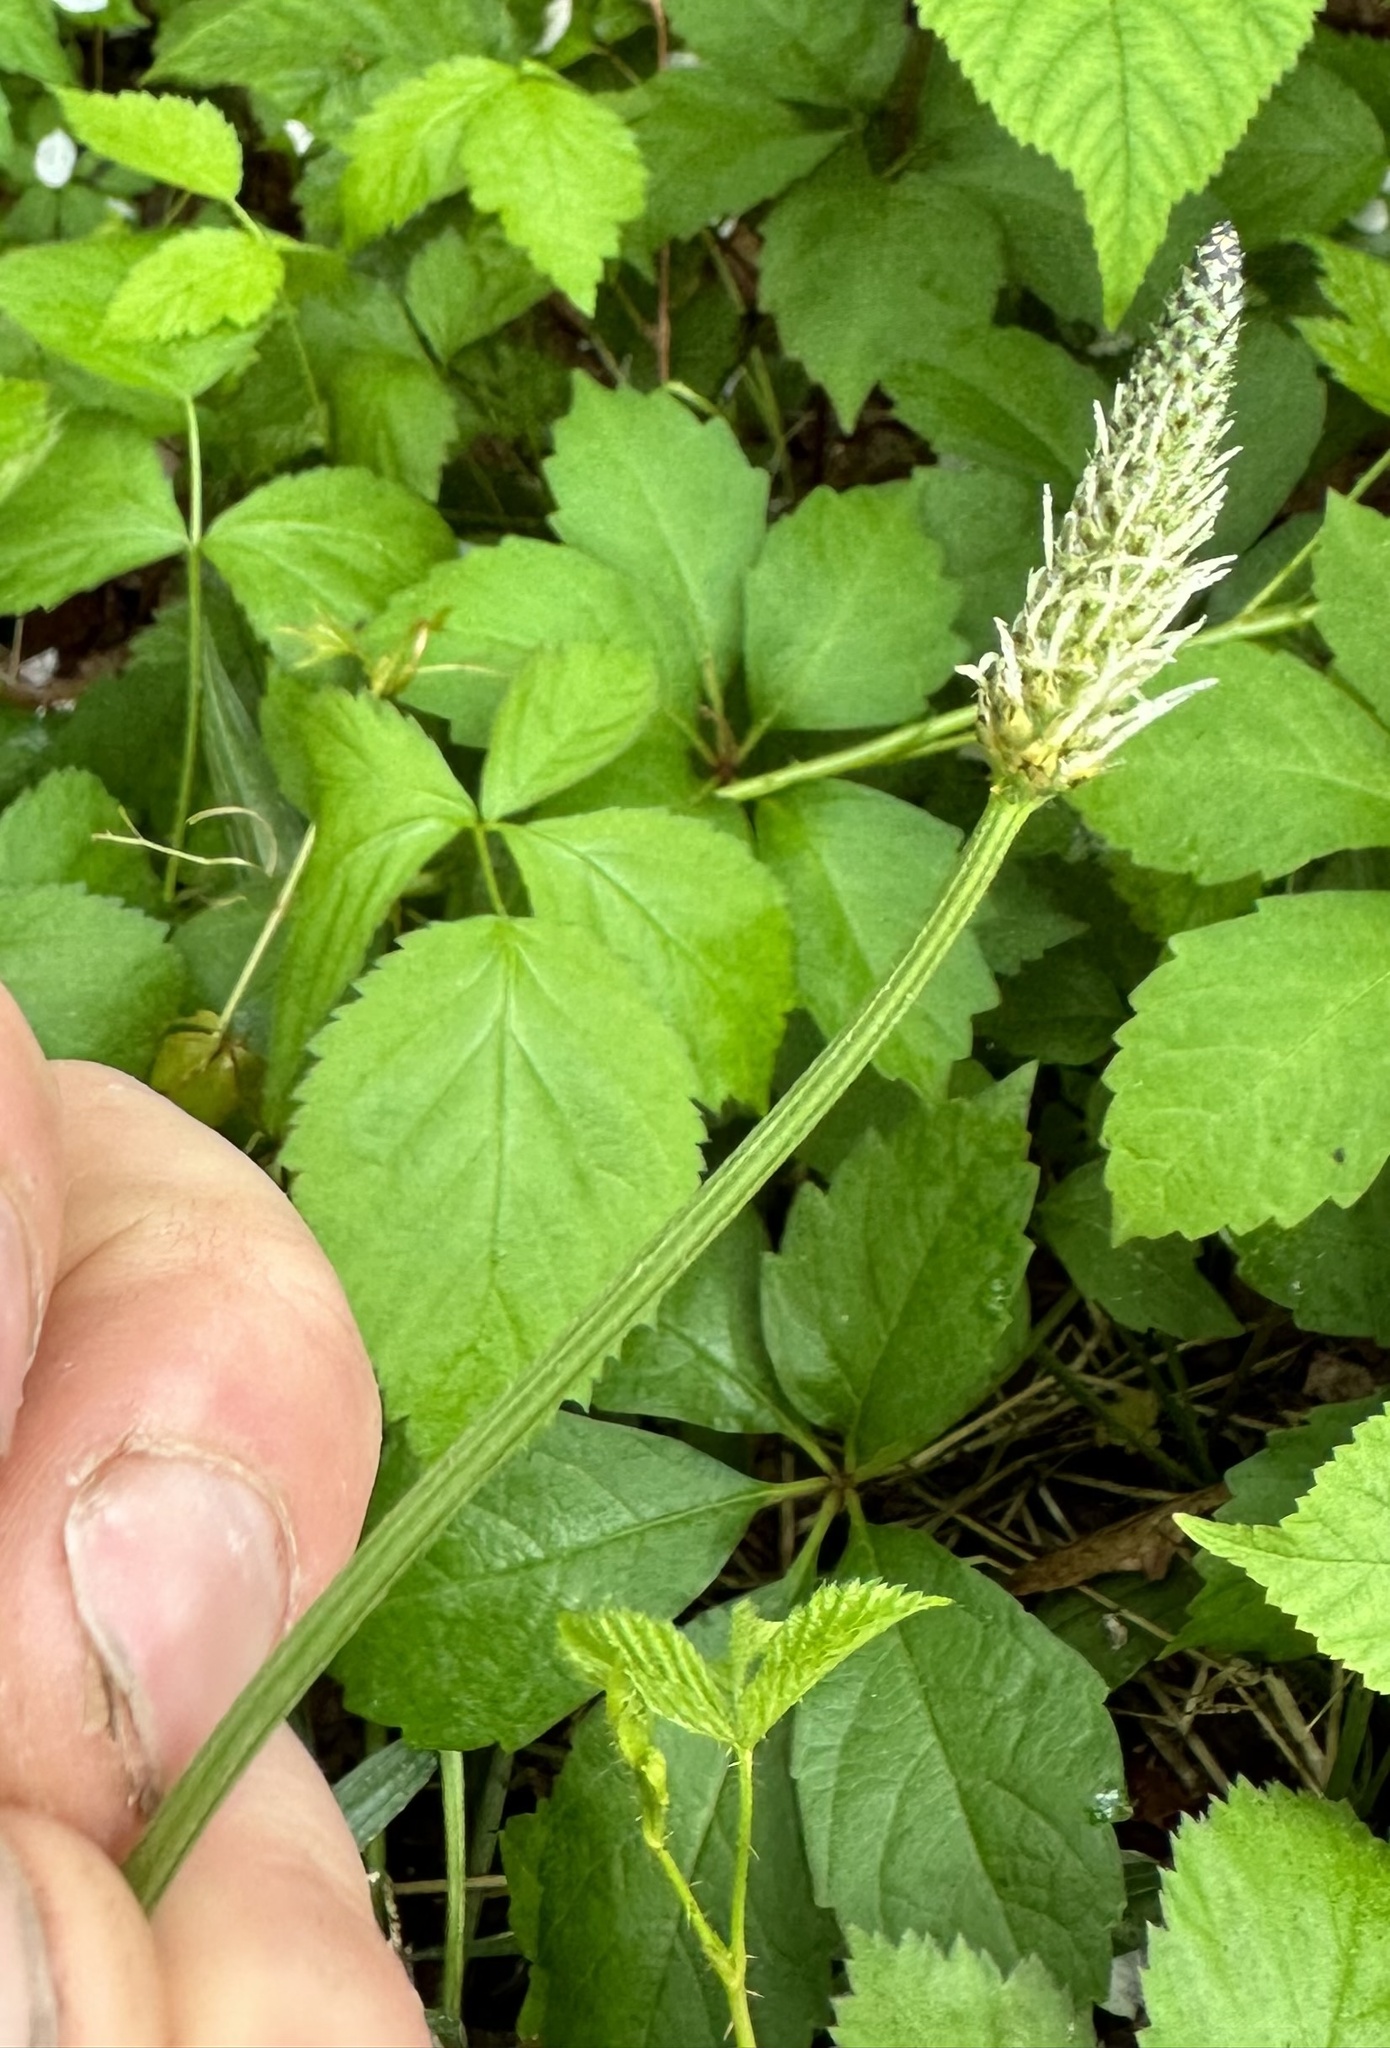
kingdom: Plantae
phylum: Tracheophyta
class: Magnoliopsida
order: Lamiales
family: Plantaginaceae
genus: Plantago
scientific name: Plantago lanceolata
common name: Ribwort plantain
